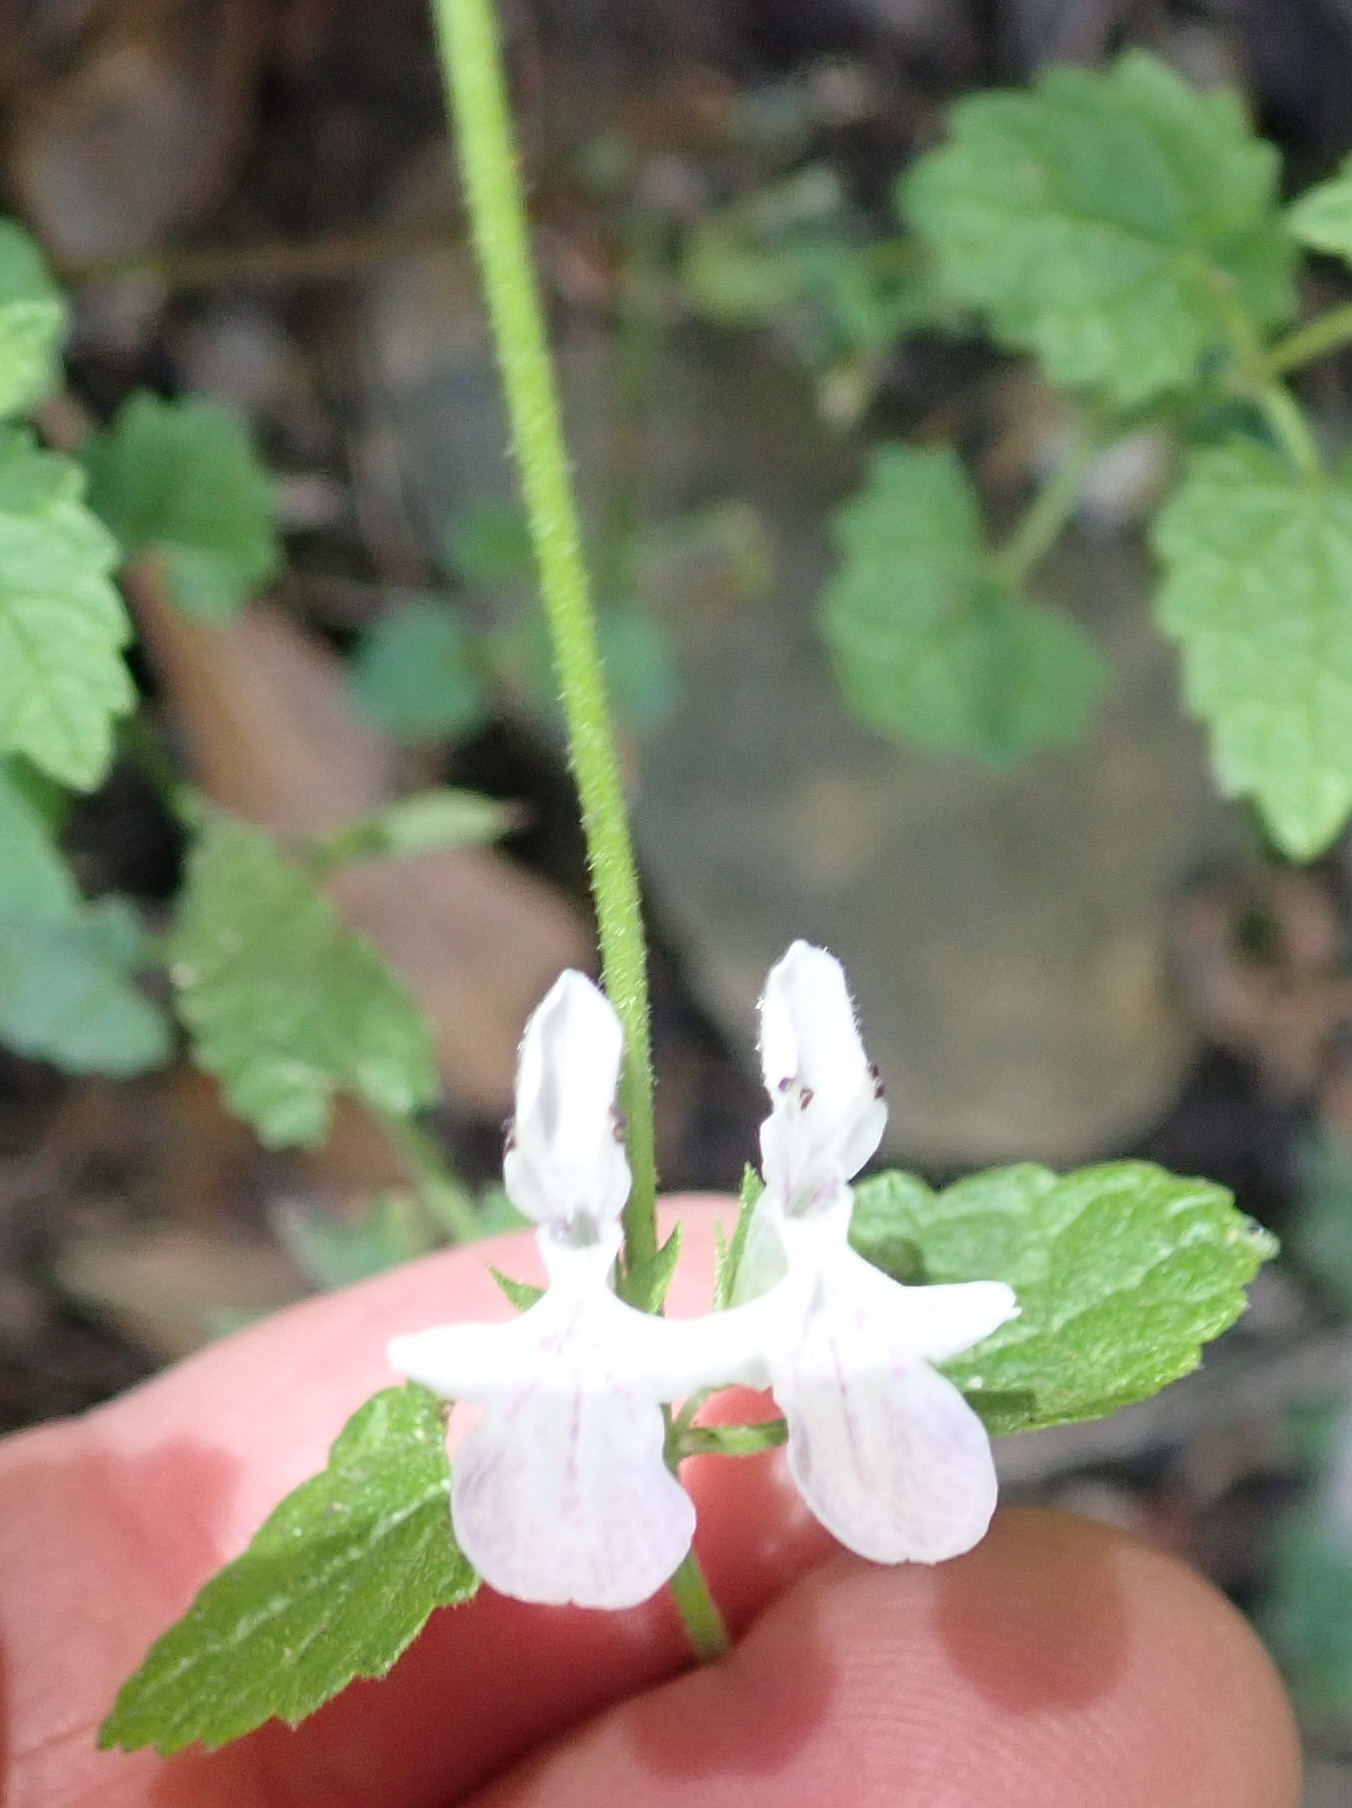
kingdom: Plantae
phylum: Tracheophyta
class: Magnoliopsida
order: Lamiales
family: Lamiaceae
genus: Stachys
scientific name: Stachys aethiopica
